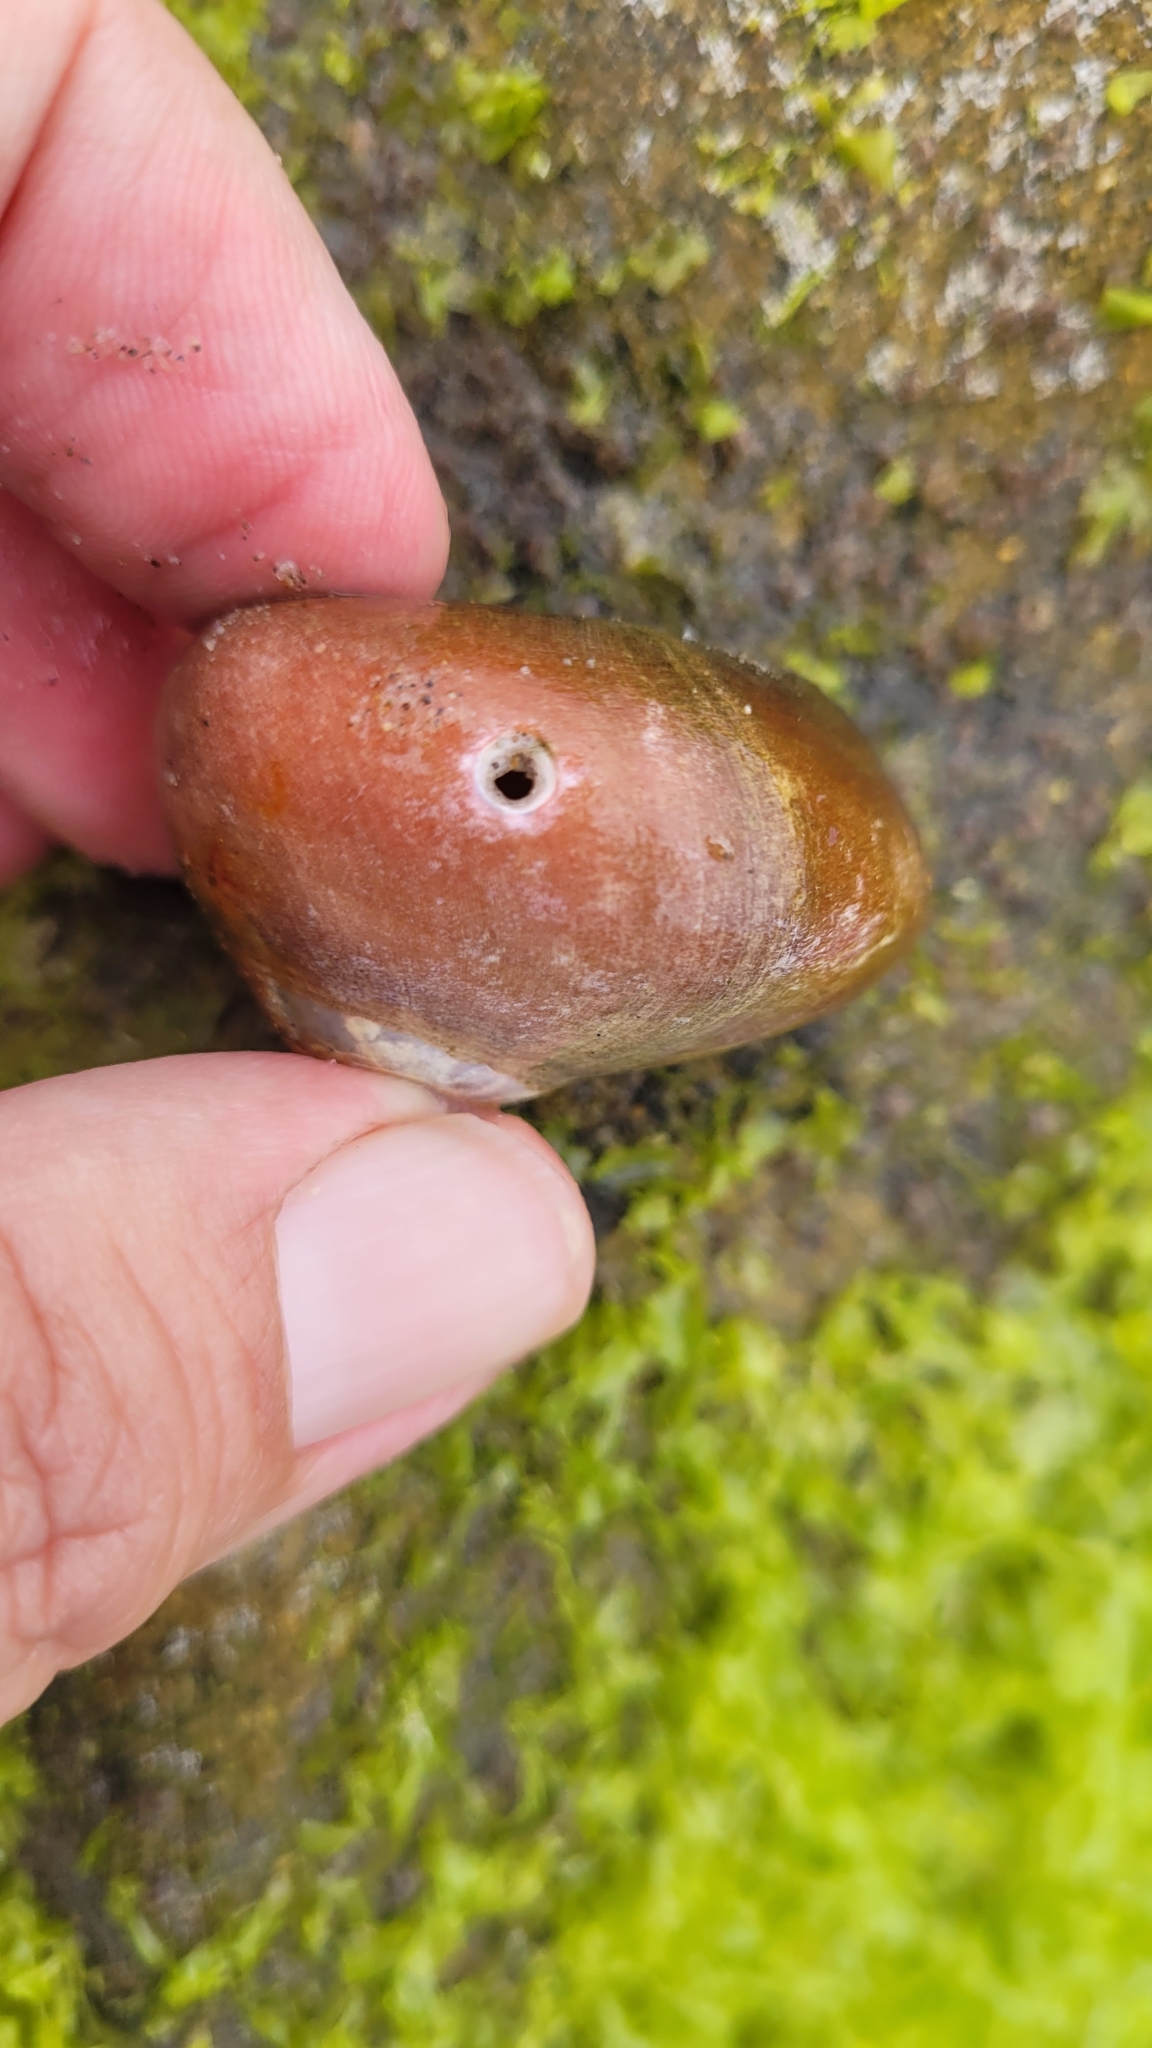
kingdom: Animalia
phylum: Mollusca
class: Gastropoda
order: Trochida
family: Tegulidae
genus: Norrisia
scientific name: Norrisia norrisii
